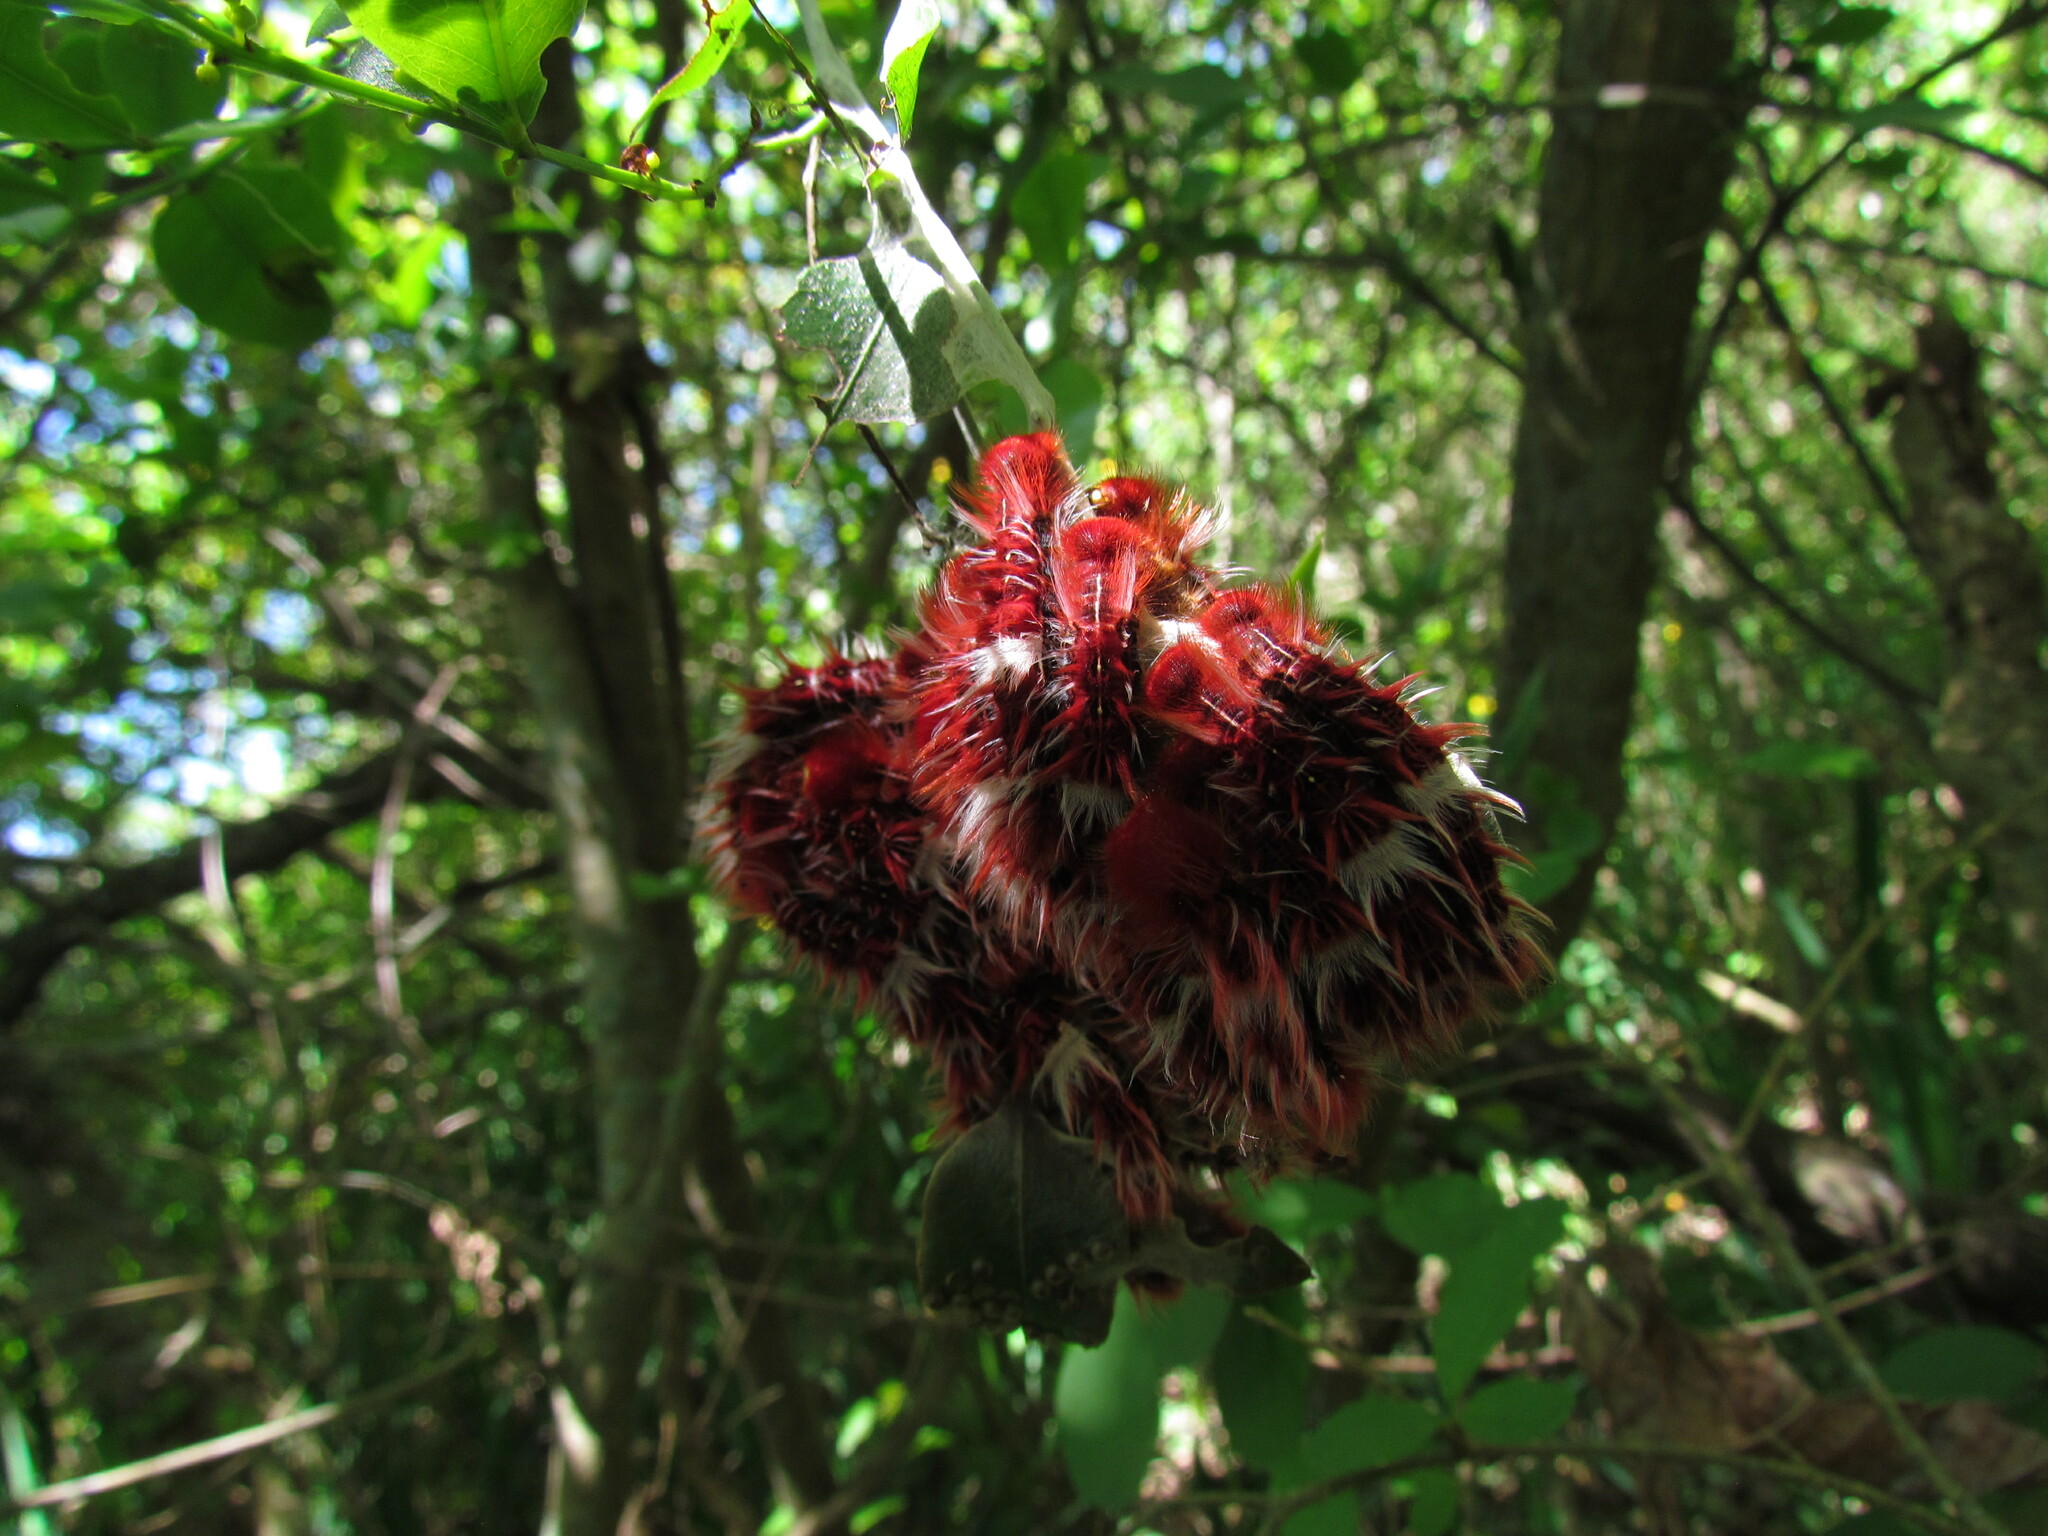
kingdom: Animalia
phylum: Arthropoda
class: Insecta
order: Lepidoptera
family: Nymphalidae
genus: Morpho
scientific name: Morpho epistrophus
